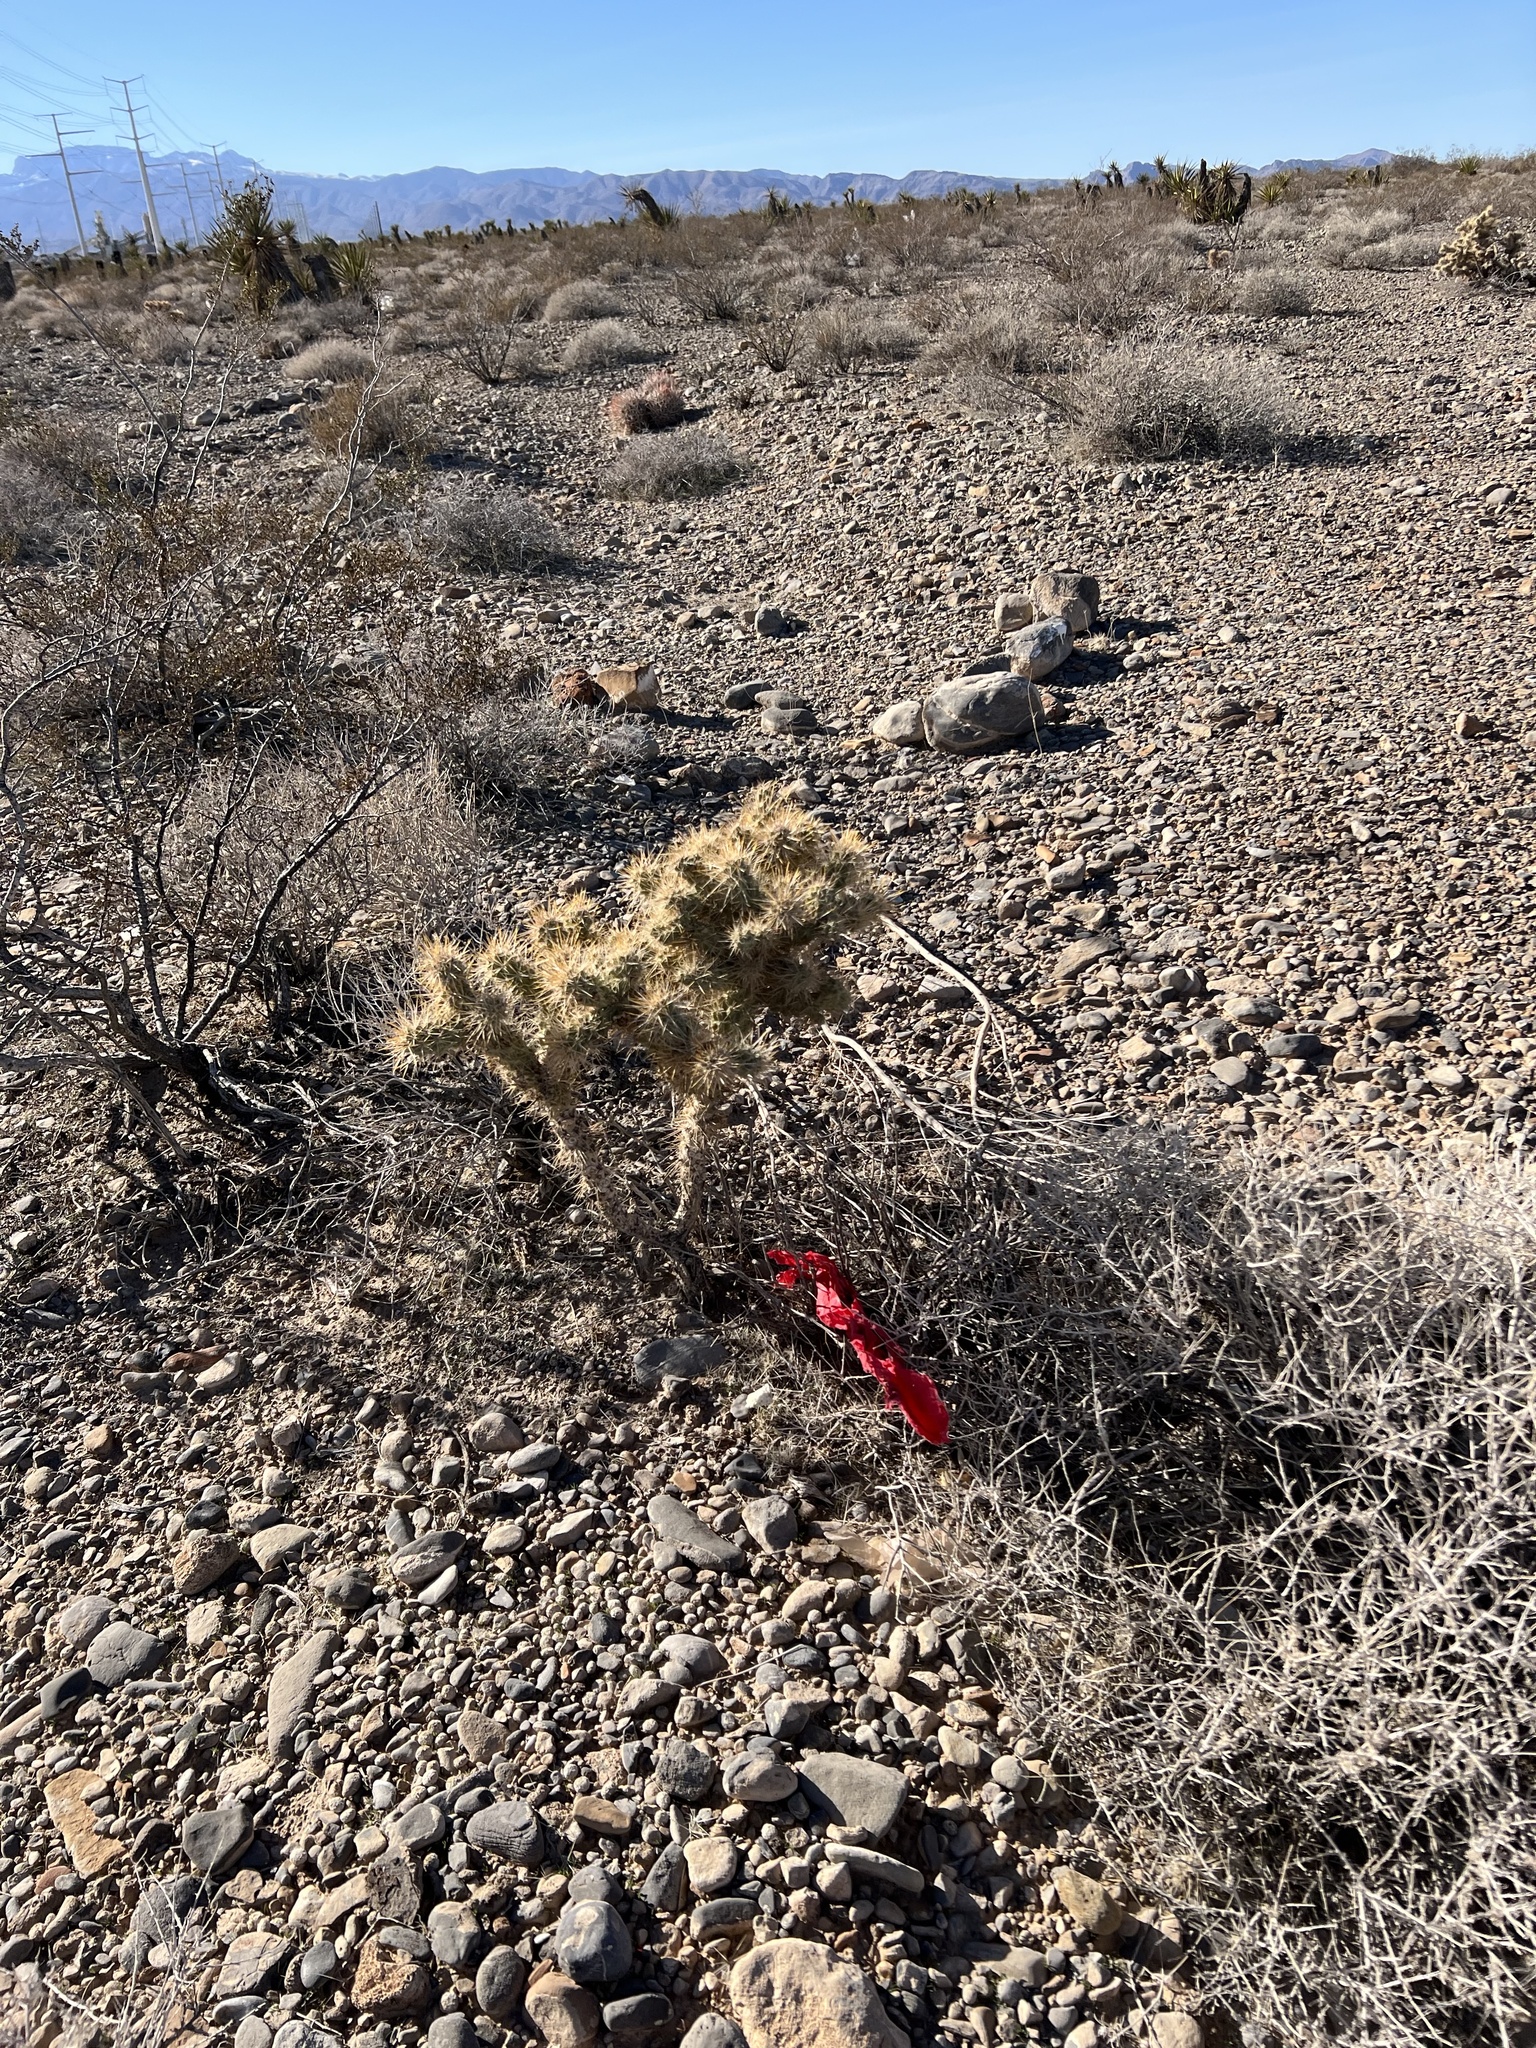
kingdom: Plantae
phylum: Tracheophyta
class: Magnoliopsida
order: Caryophyllales
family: Cactaceae
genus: Cylindropuntia
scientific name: Cylindropuntia echinocarpa
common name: Ground cholla
